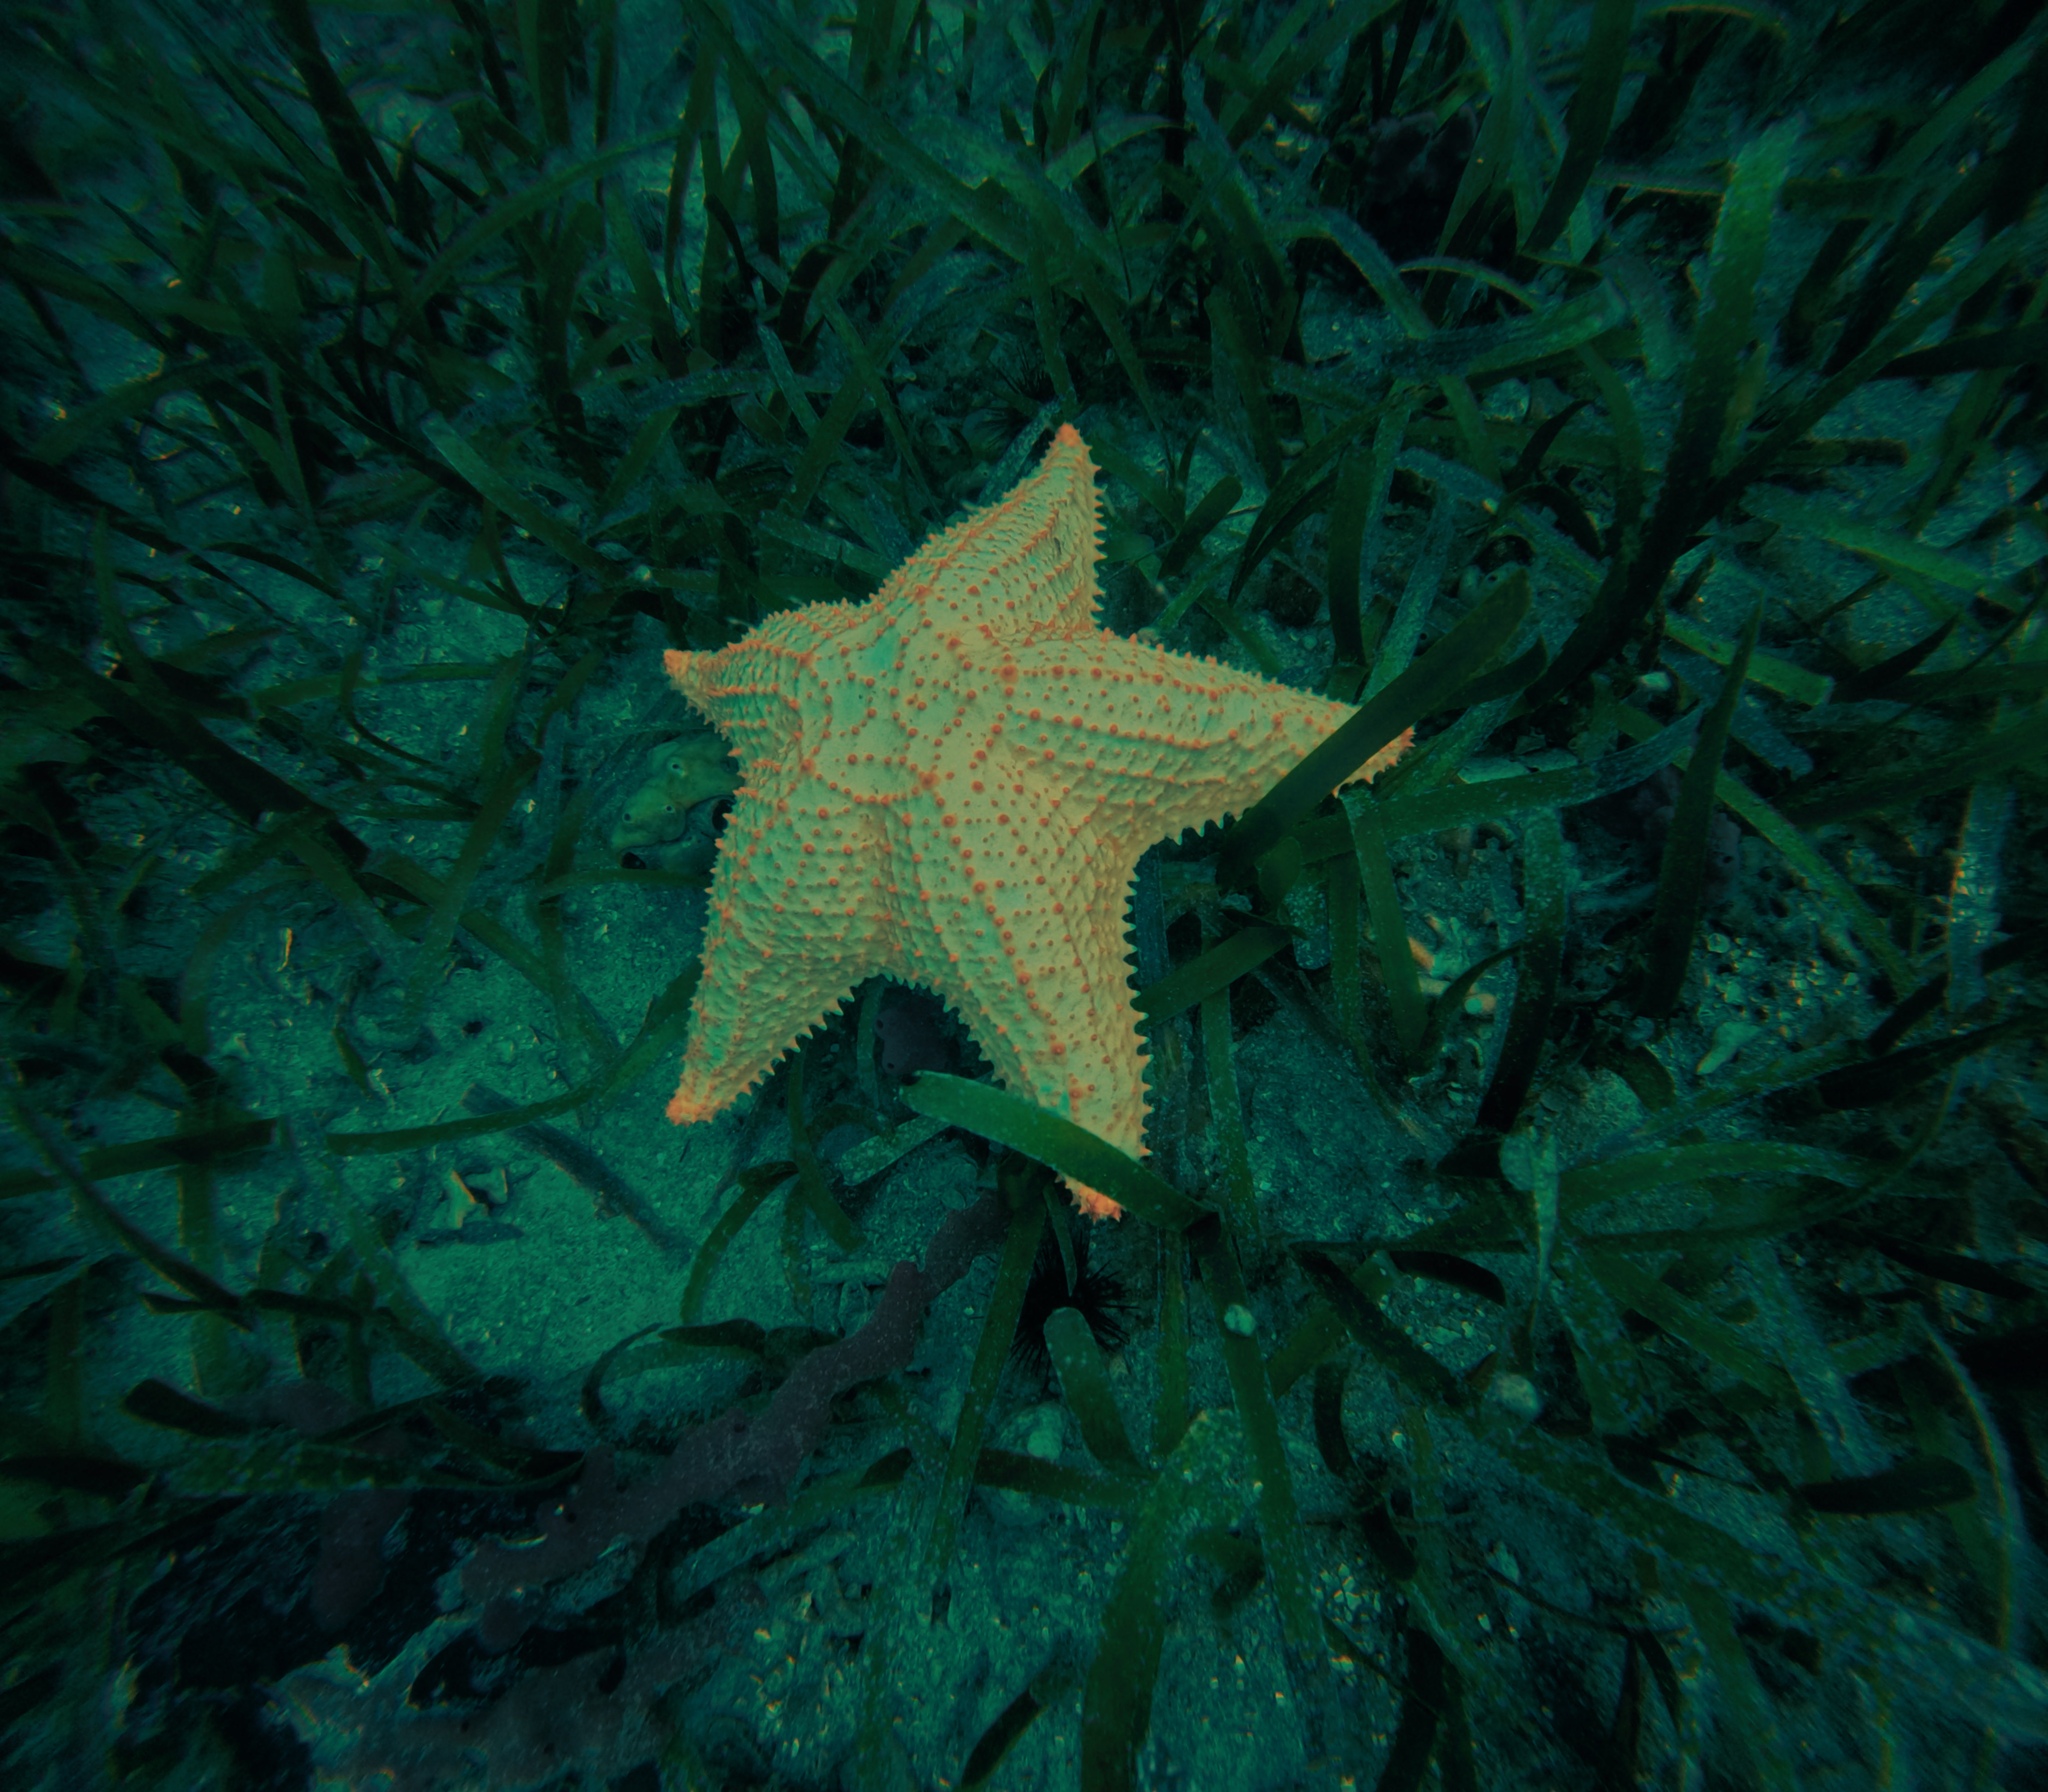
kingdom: Animalia
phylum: Echinodermata
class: Asteroidea
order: Valvatida
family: Oreasteridae
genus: Oreaster
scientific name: Oreaster reticulatus
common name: Cushion sea star
